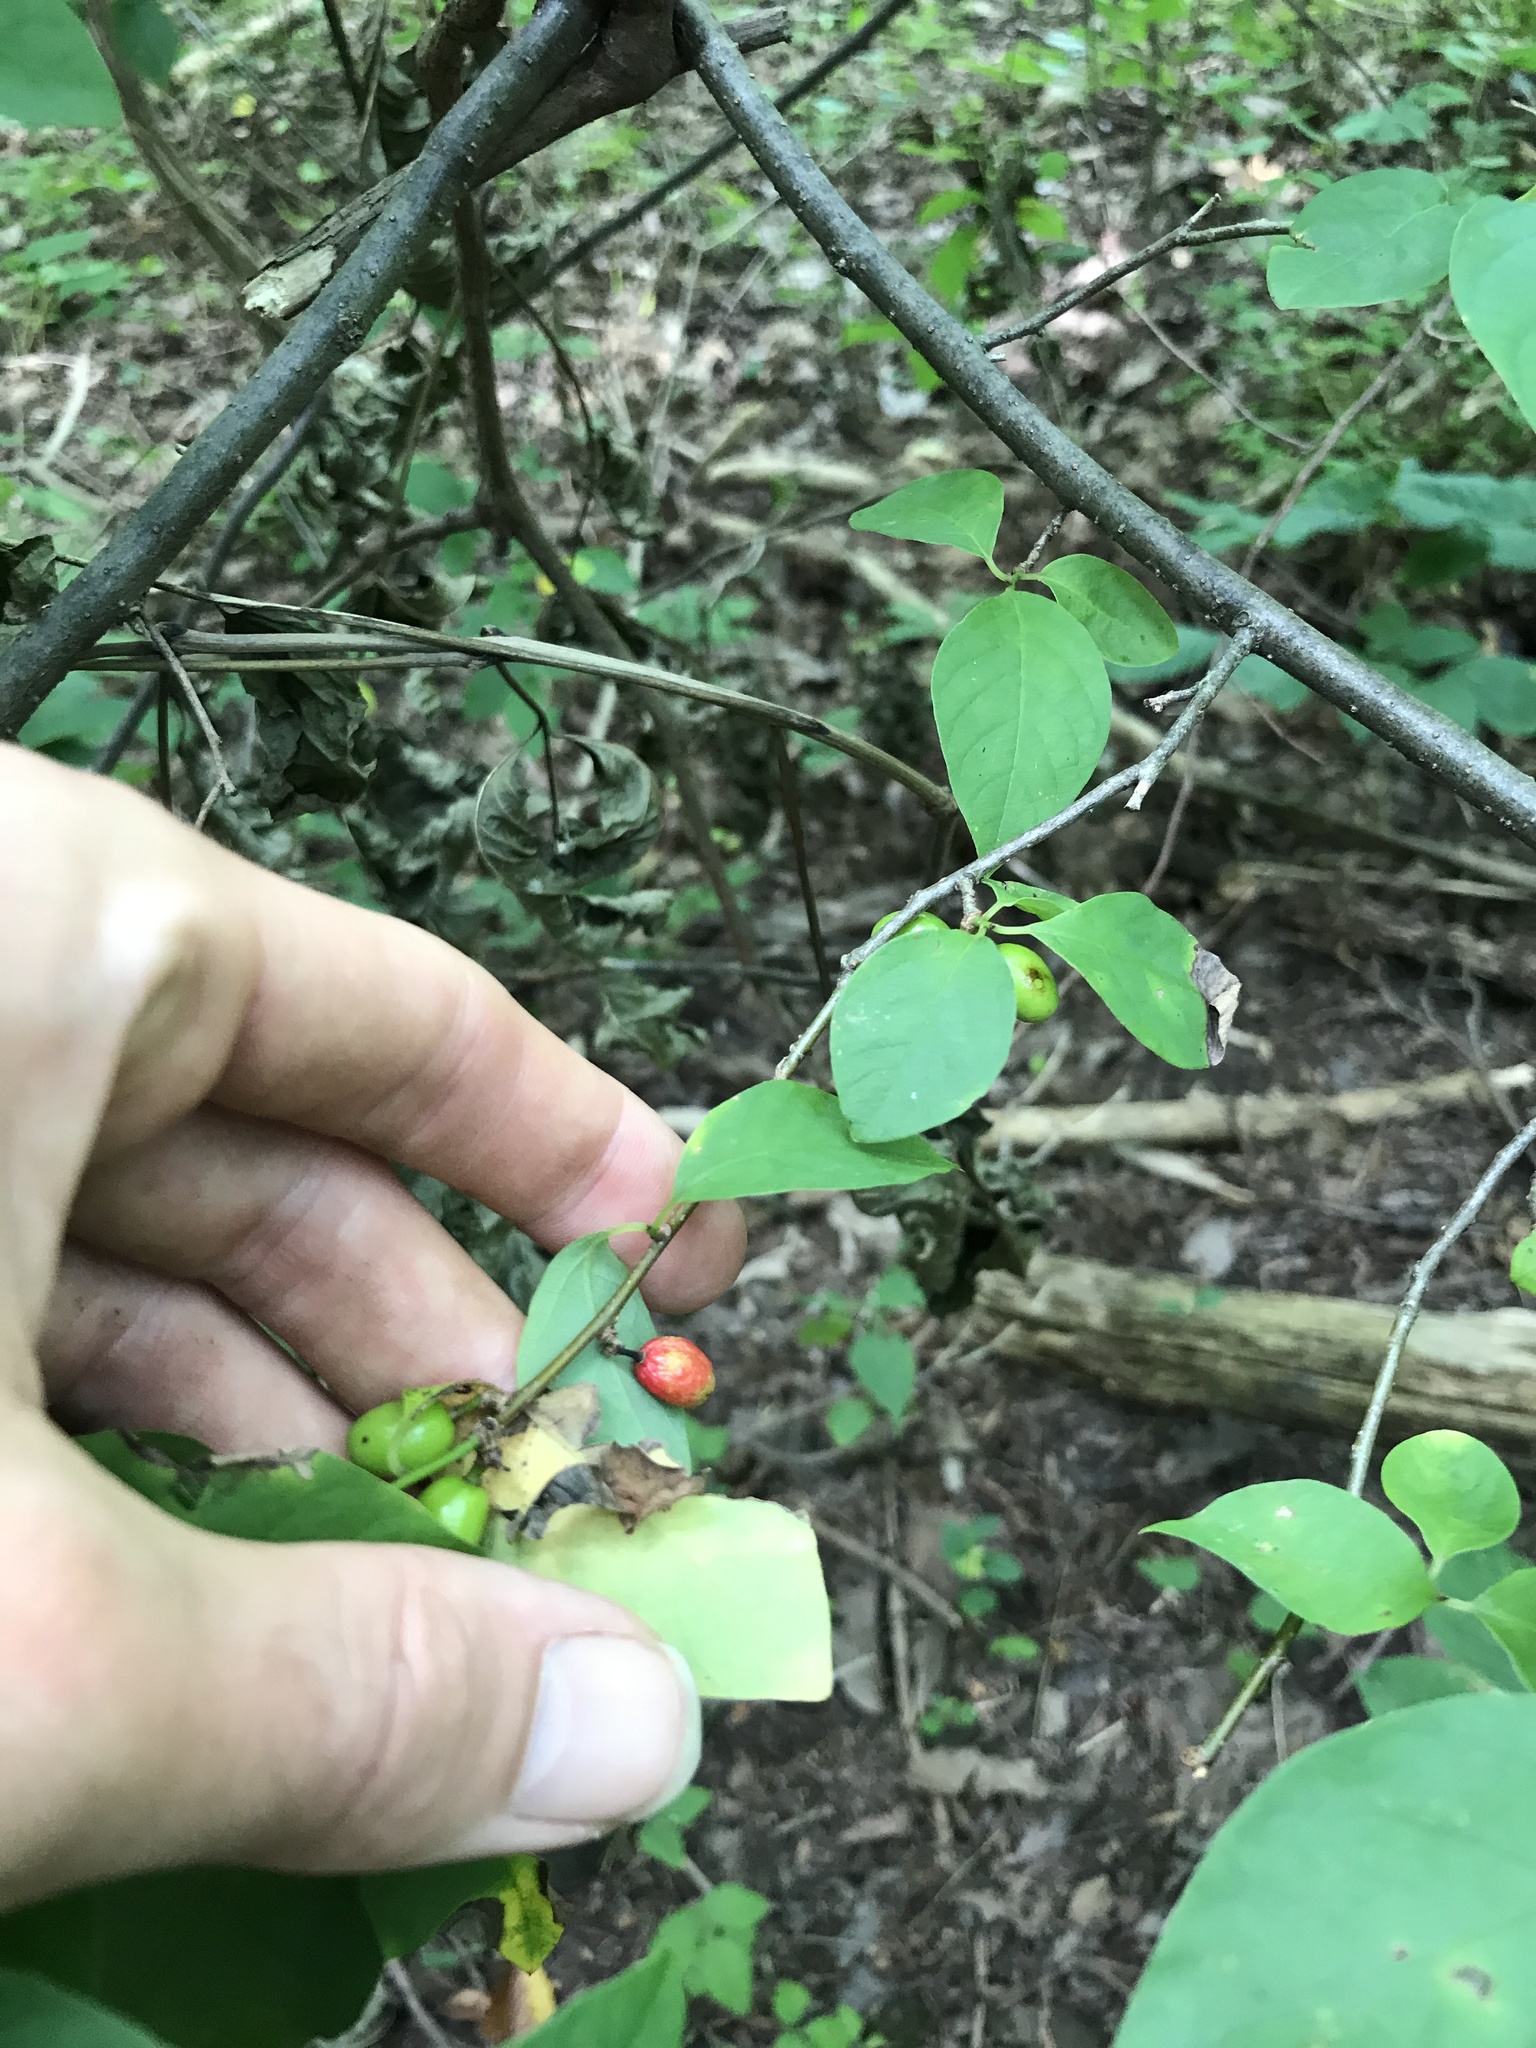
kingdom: Plantae
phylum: Tracheophyta
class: Magnoliopsida
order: Laurales
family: Lauraceae
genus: Lindera
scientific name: Lindera benzoin
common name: Spicebush
